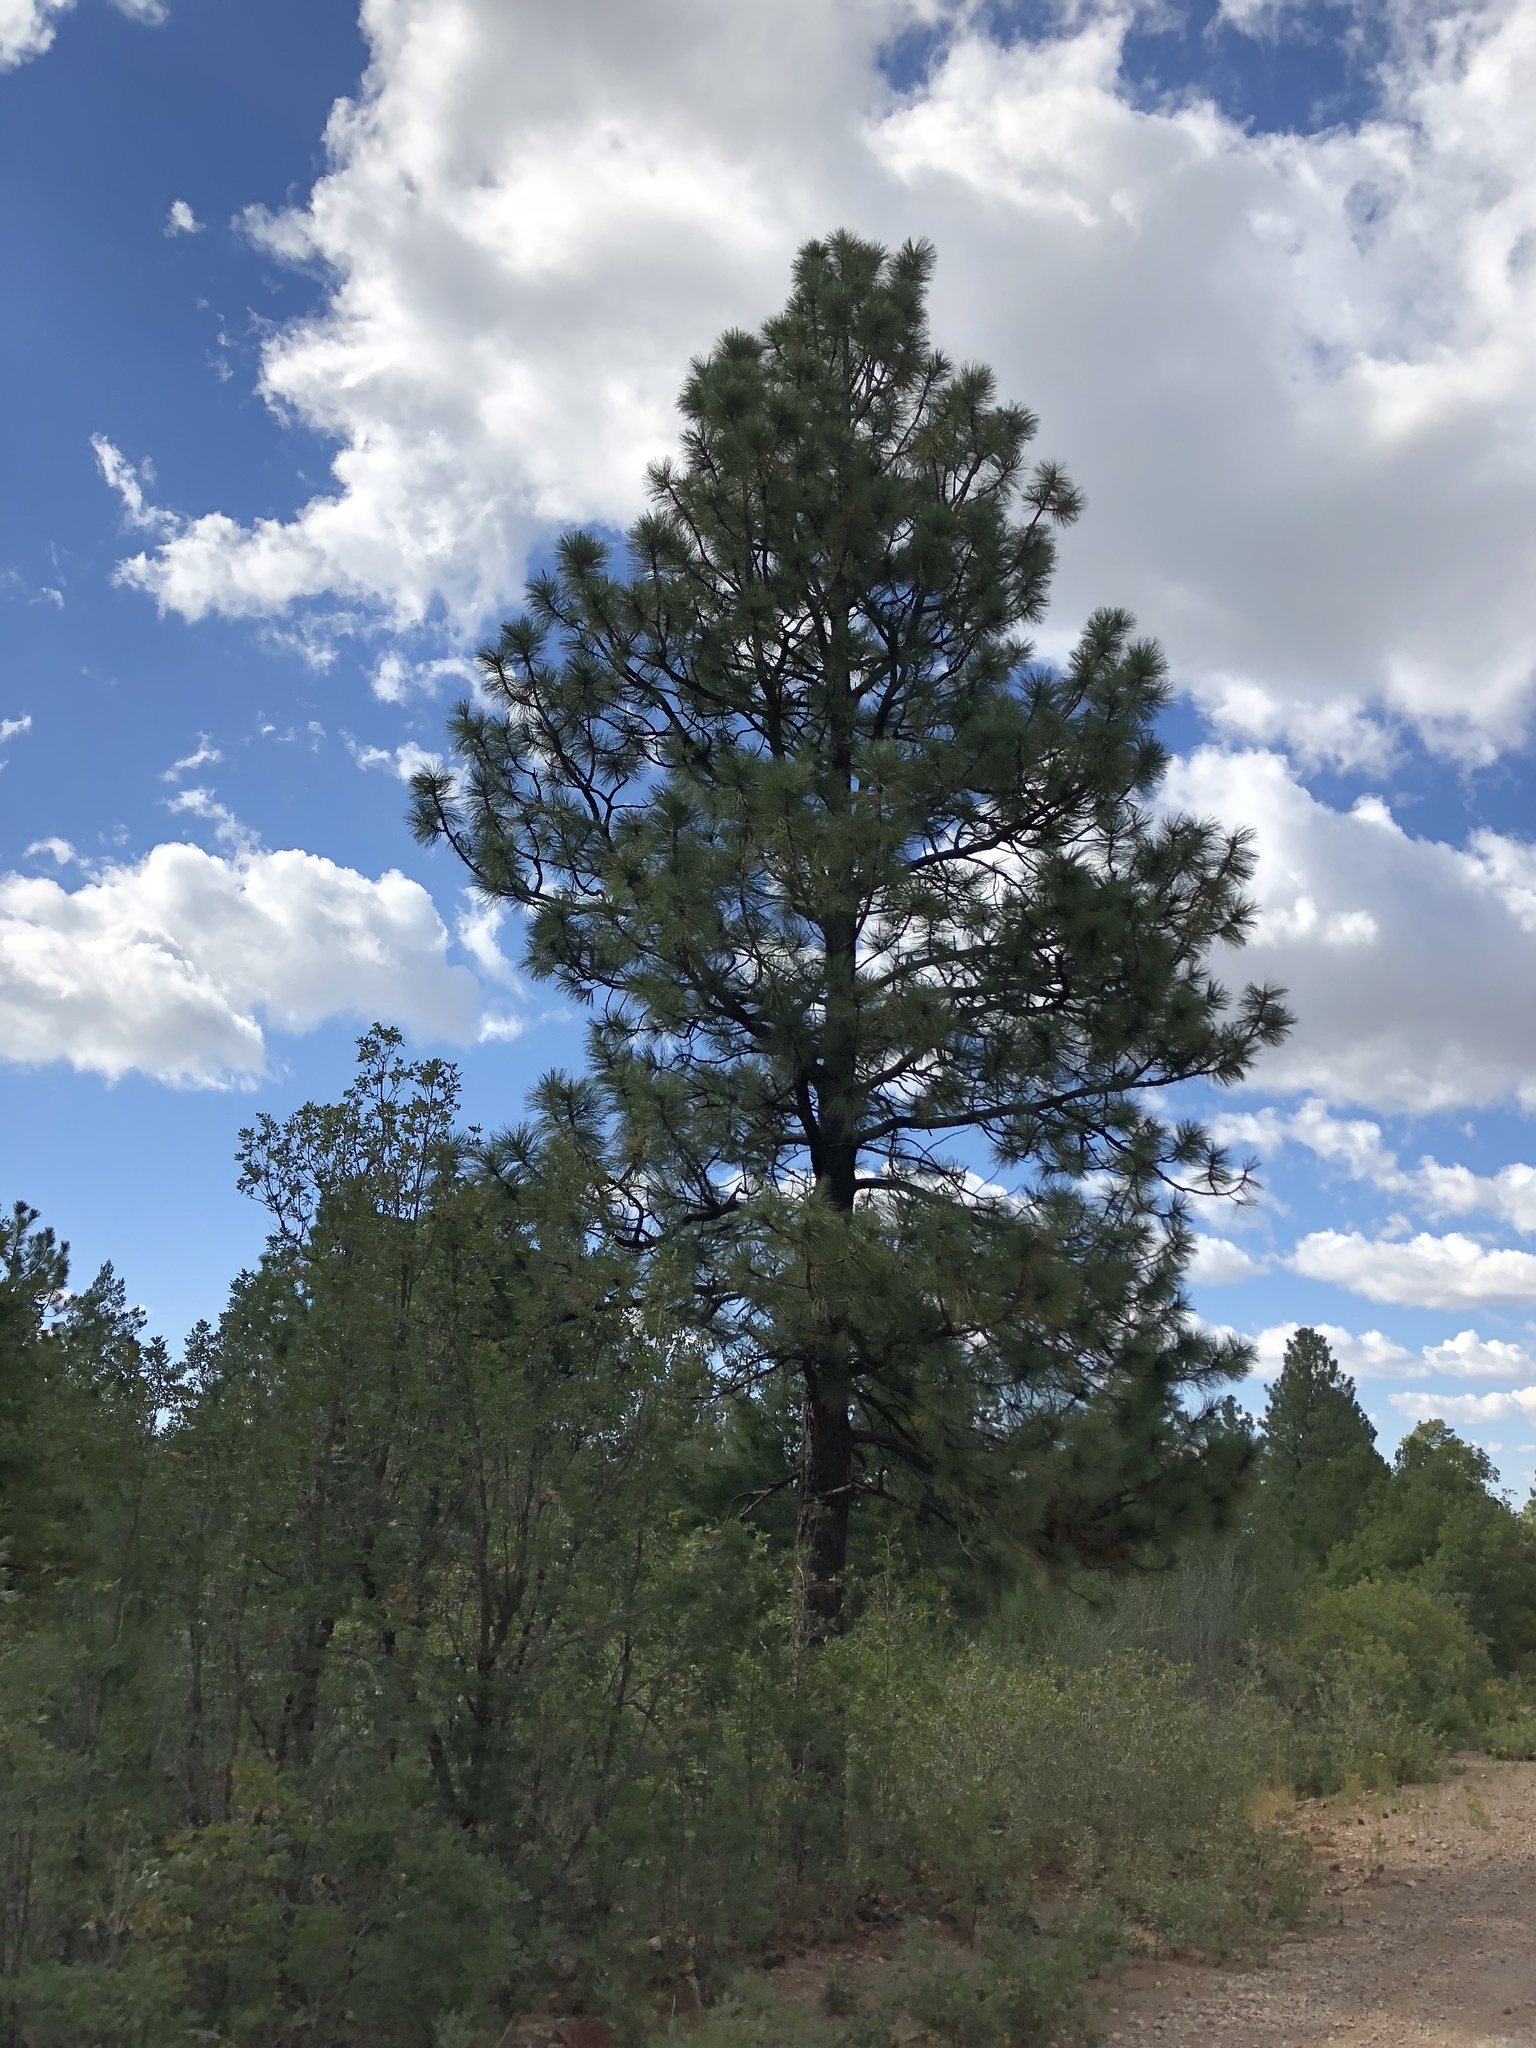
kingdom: Plantae
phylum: Tracheophyta
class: Pinopsida
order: Pinales
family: Pinaceae
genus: Pinus
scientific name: Pinus ponderosa
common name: Western yellow-pine
